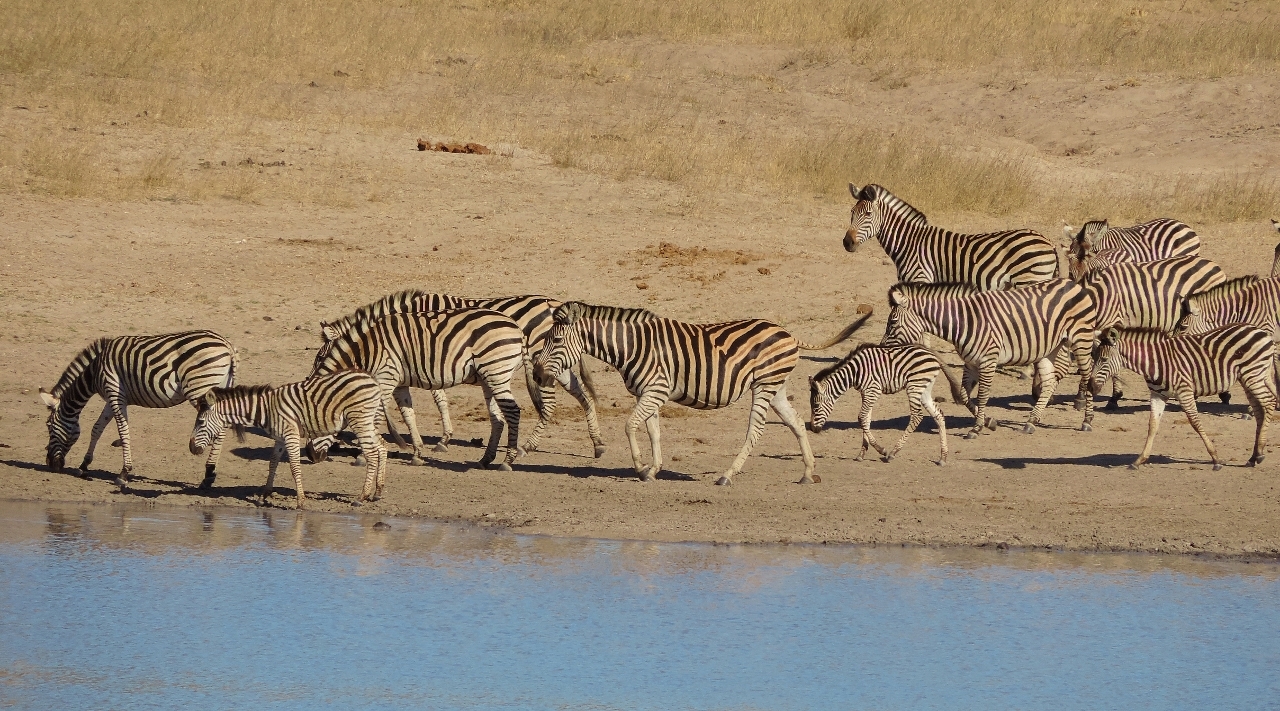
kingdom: Animalia
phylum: Chordata
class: Mammalia
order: Perissodactyla
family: Equidae
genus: Equus
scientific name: Equus quagga
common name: Plains zebra
